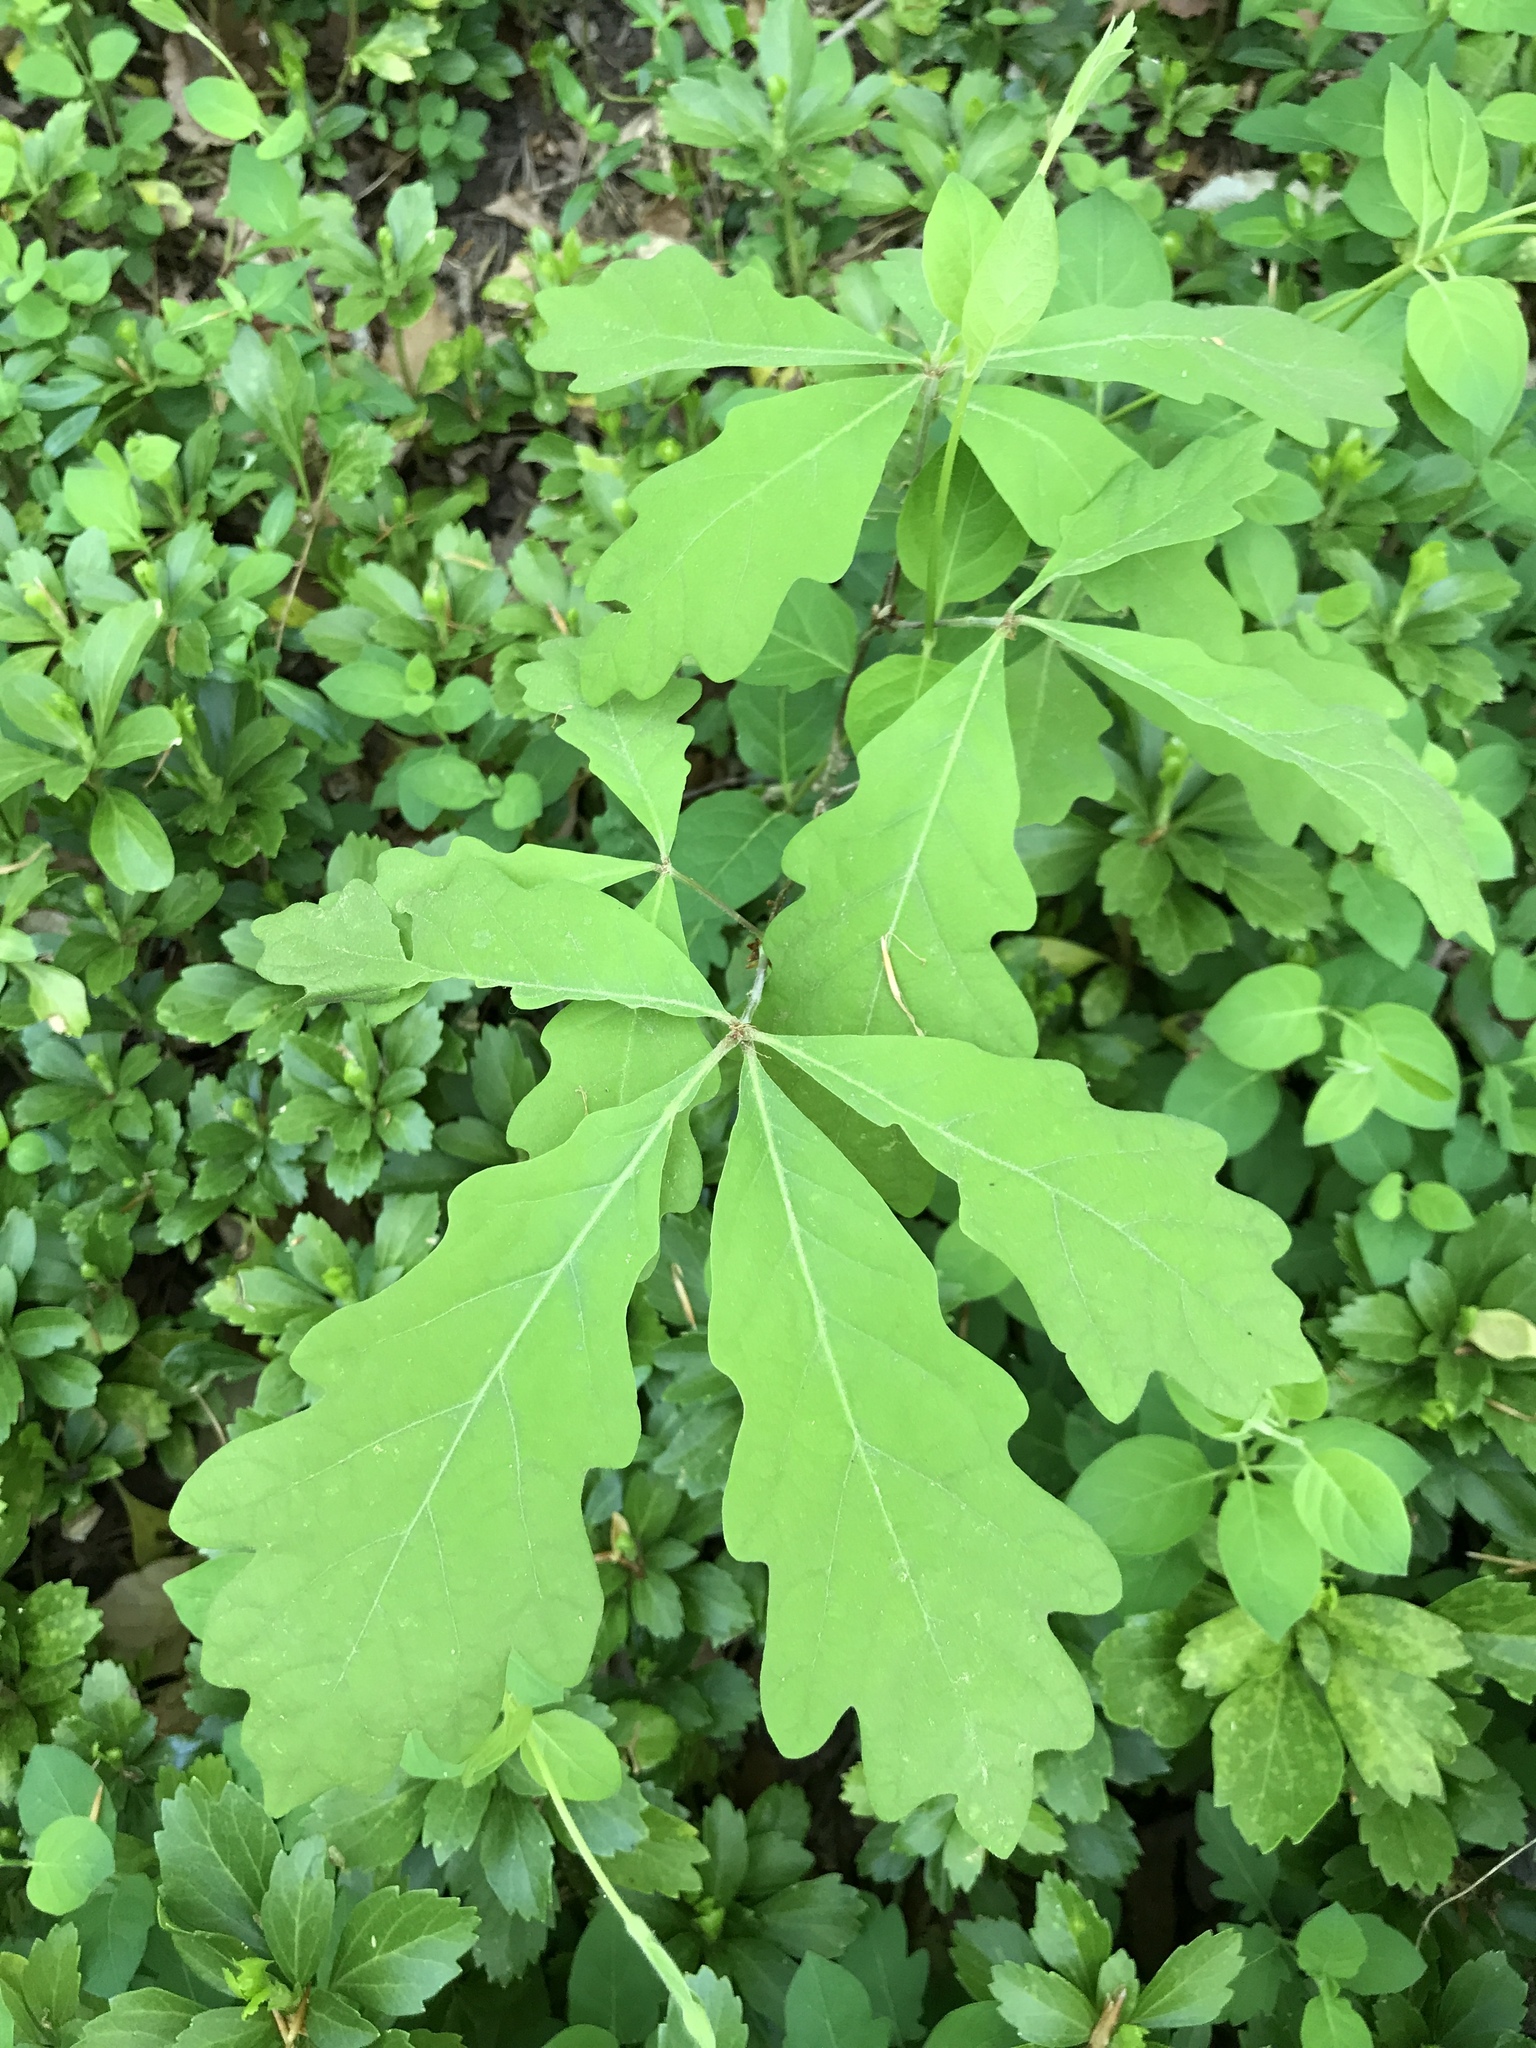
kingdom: Plantae
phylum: Tracheophyta
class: Magnoliopsida
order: Fagales
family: Fagaceae
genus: Quercus
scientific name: Quercus alba
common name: White oak
